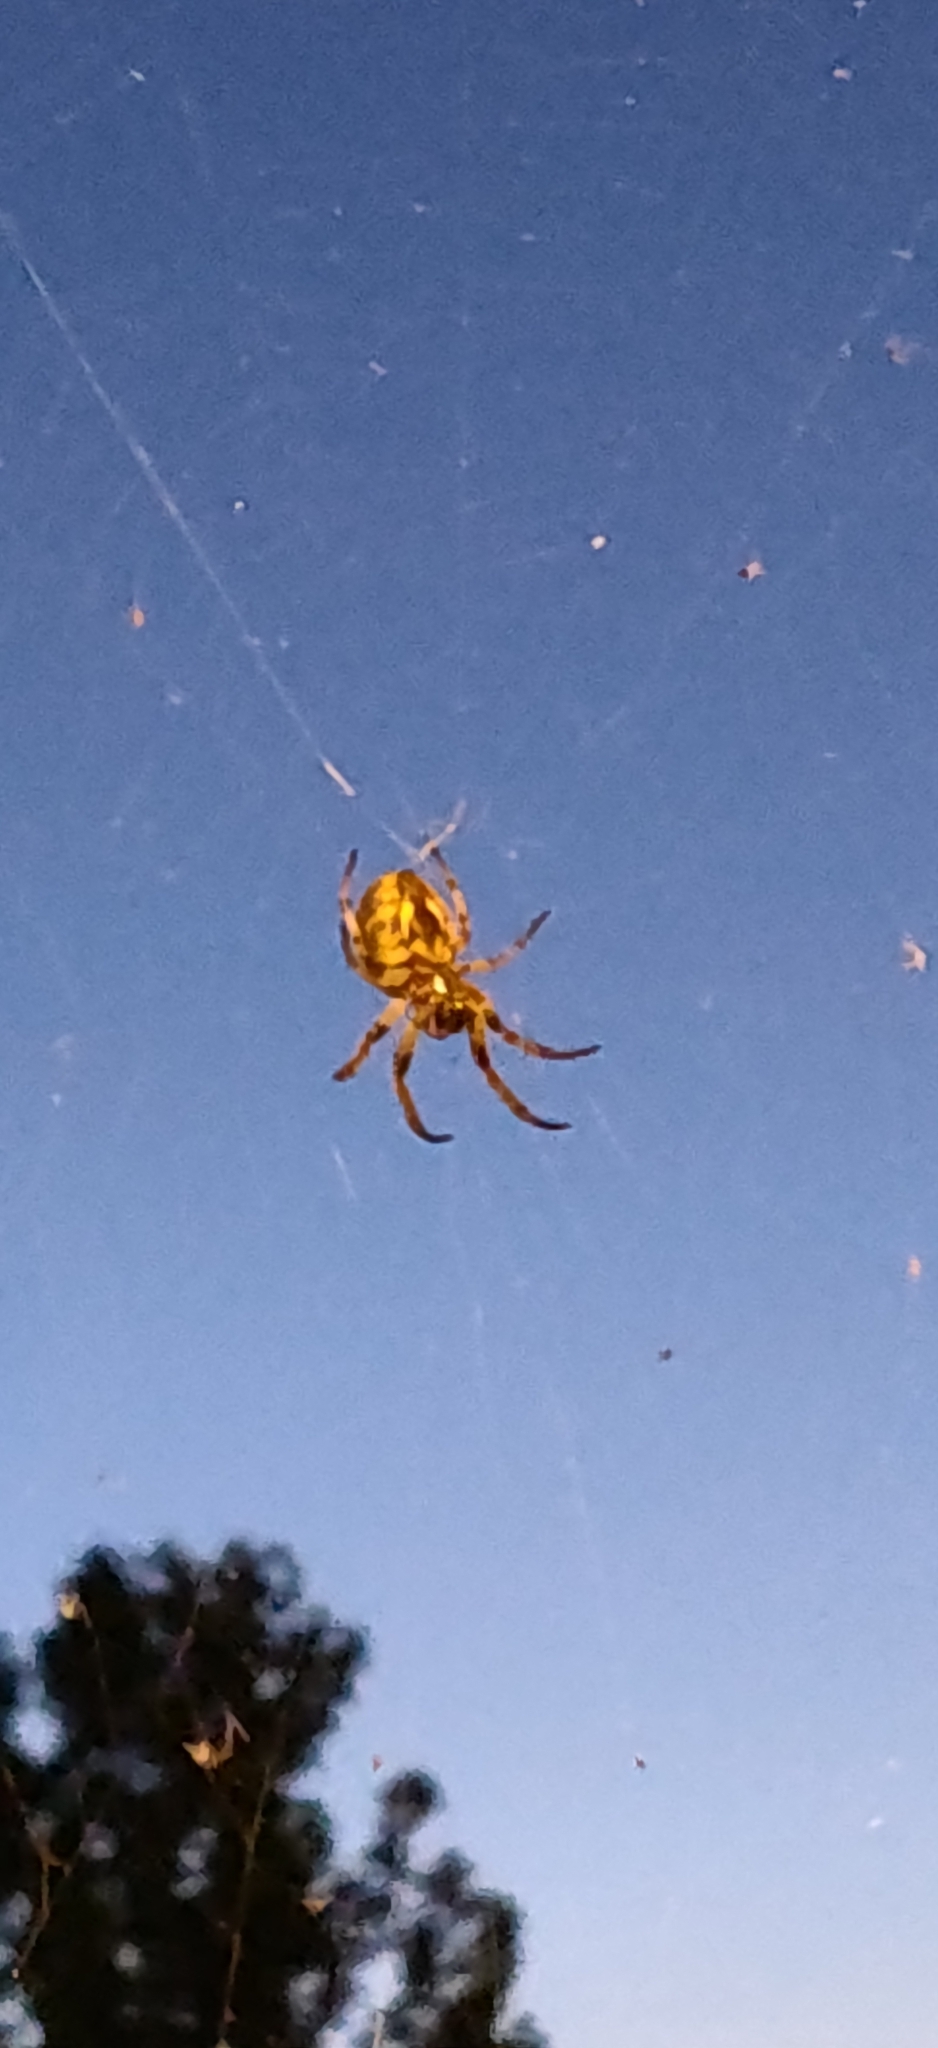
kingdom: Animalia
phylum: Arthropoda
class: Arachnida
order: Araneae
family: Araneidae
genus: Larinioides
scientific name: Larinioides cornutus
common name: Furrow orbweaver
